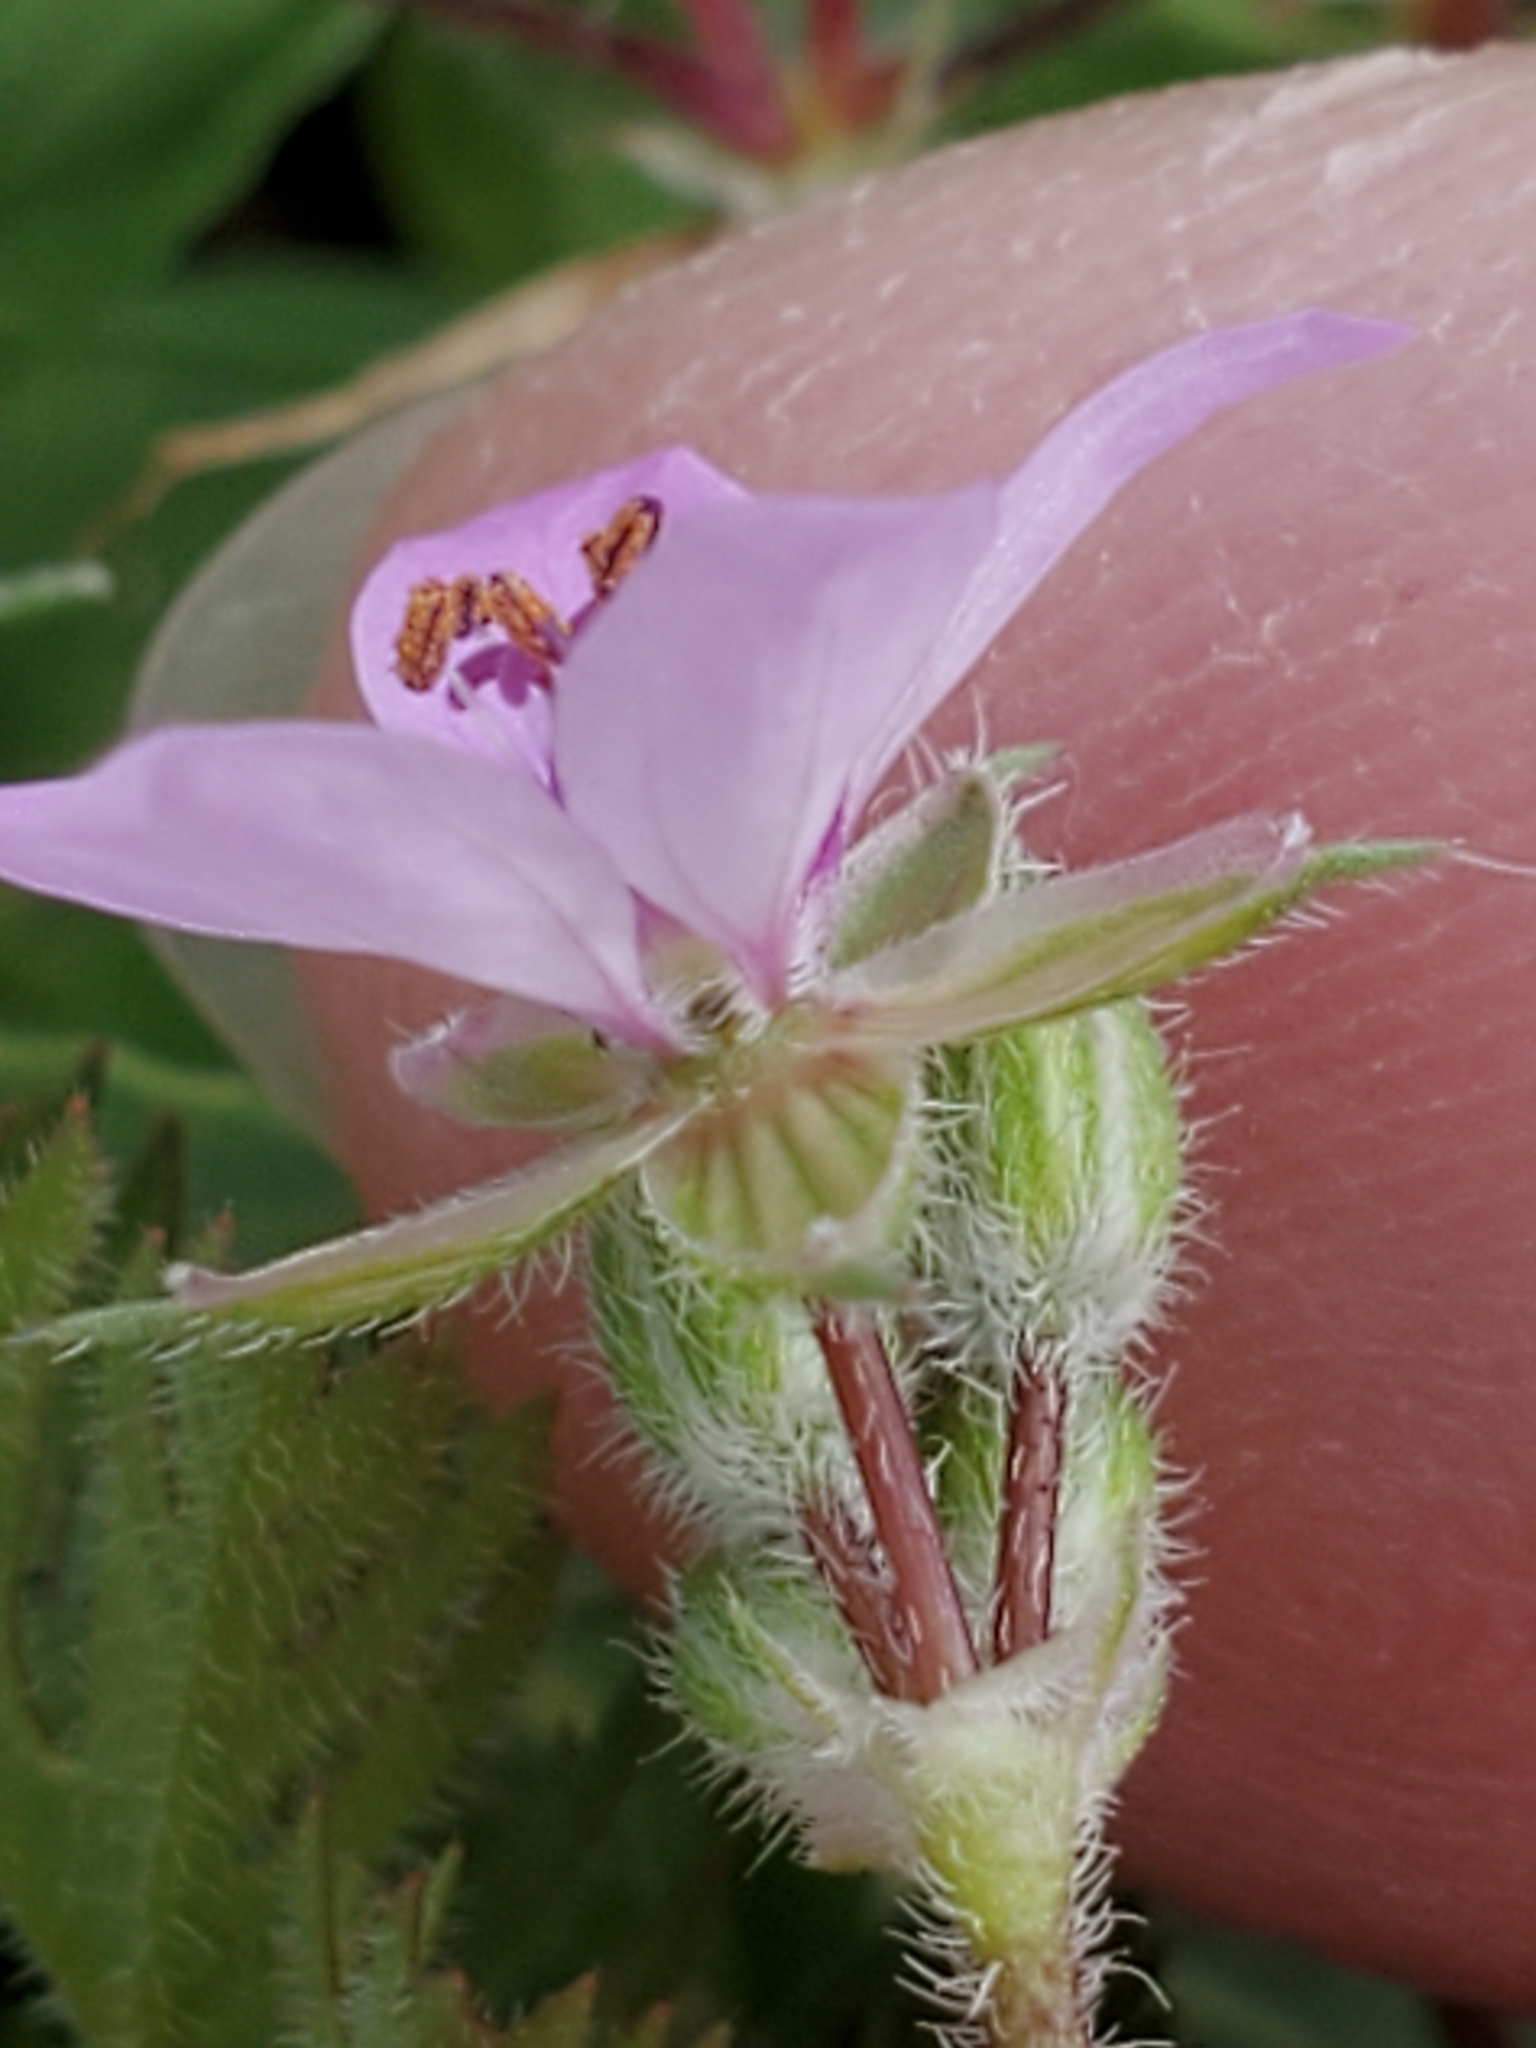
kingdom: Plantae
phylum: Tracheophyta
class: Magnoliopsida
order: Geraniales
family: Geraniaceae
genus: Erodium
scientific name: Erodium cicutarium
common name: Common stork's-bill
